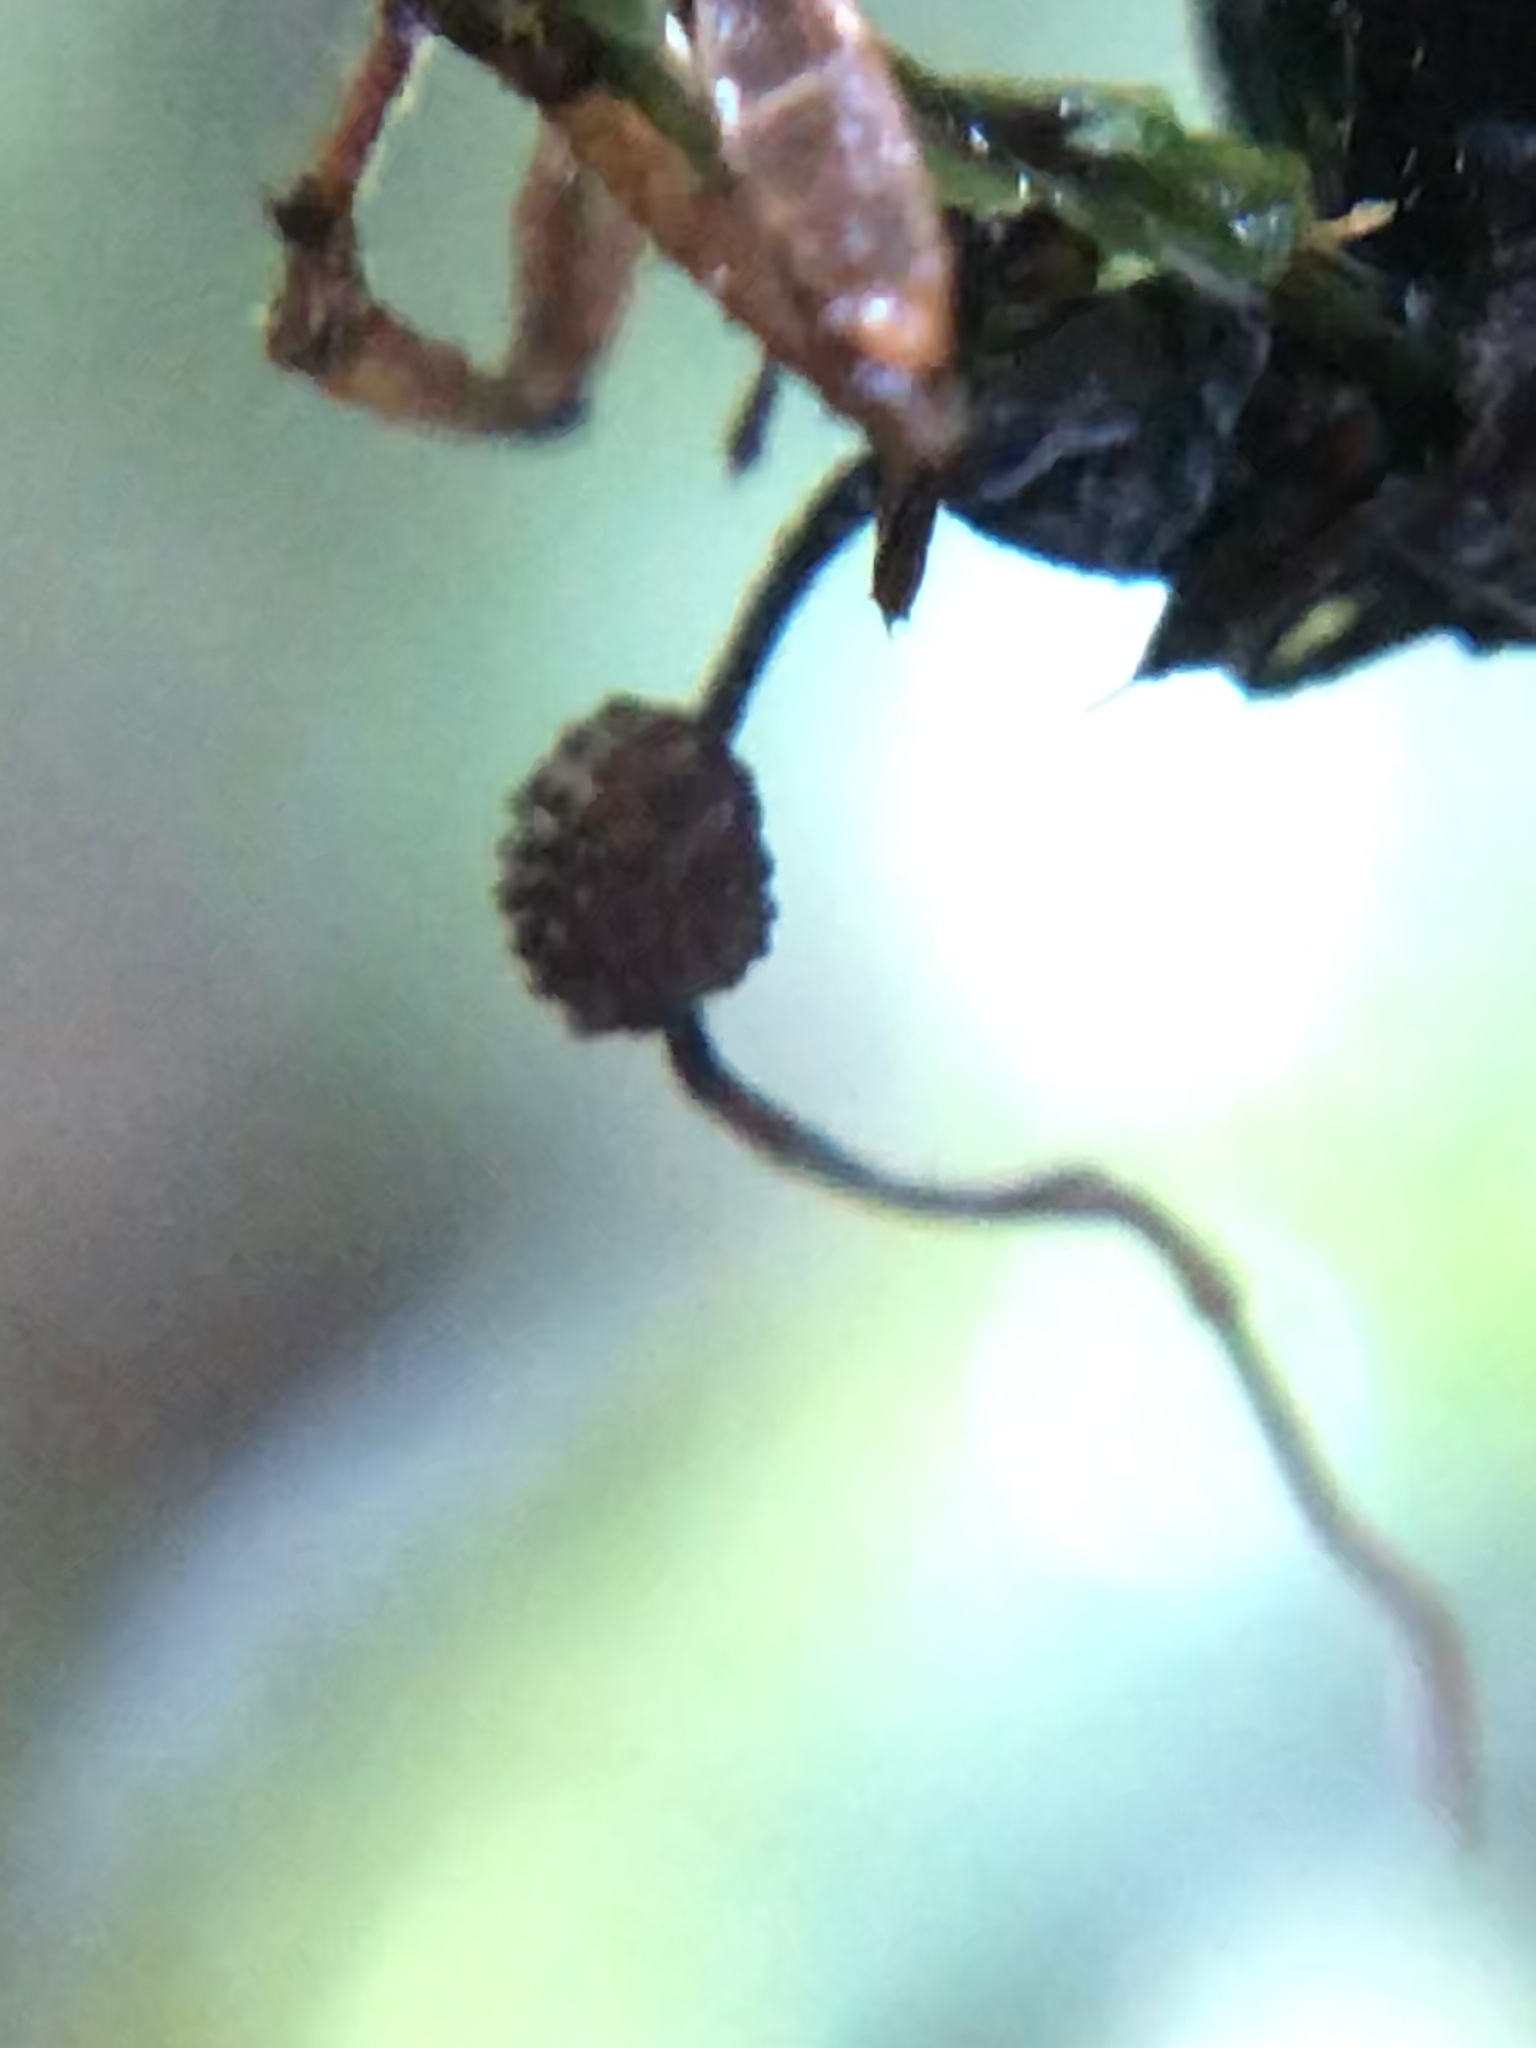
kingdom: Fungi
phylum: Ascomycota
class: Sordariomycetes
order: Hypocreales
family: Ophiocordycipitaceae
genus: Ophiocordyceps
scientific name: Ophiocordyceps camponoti-atricipis
